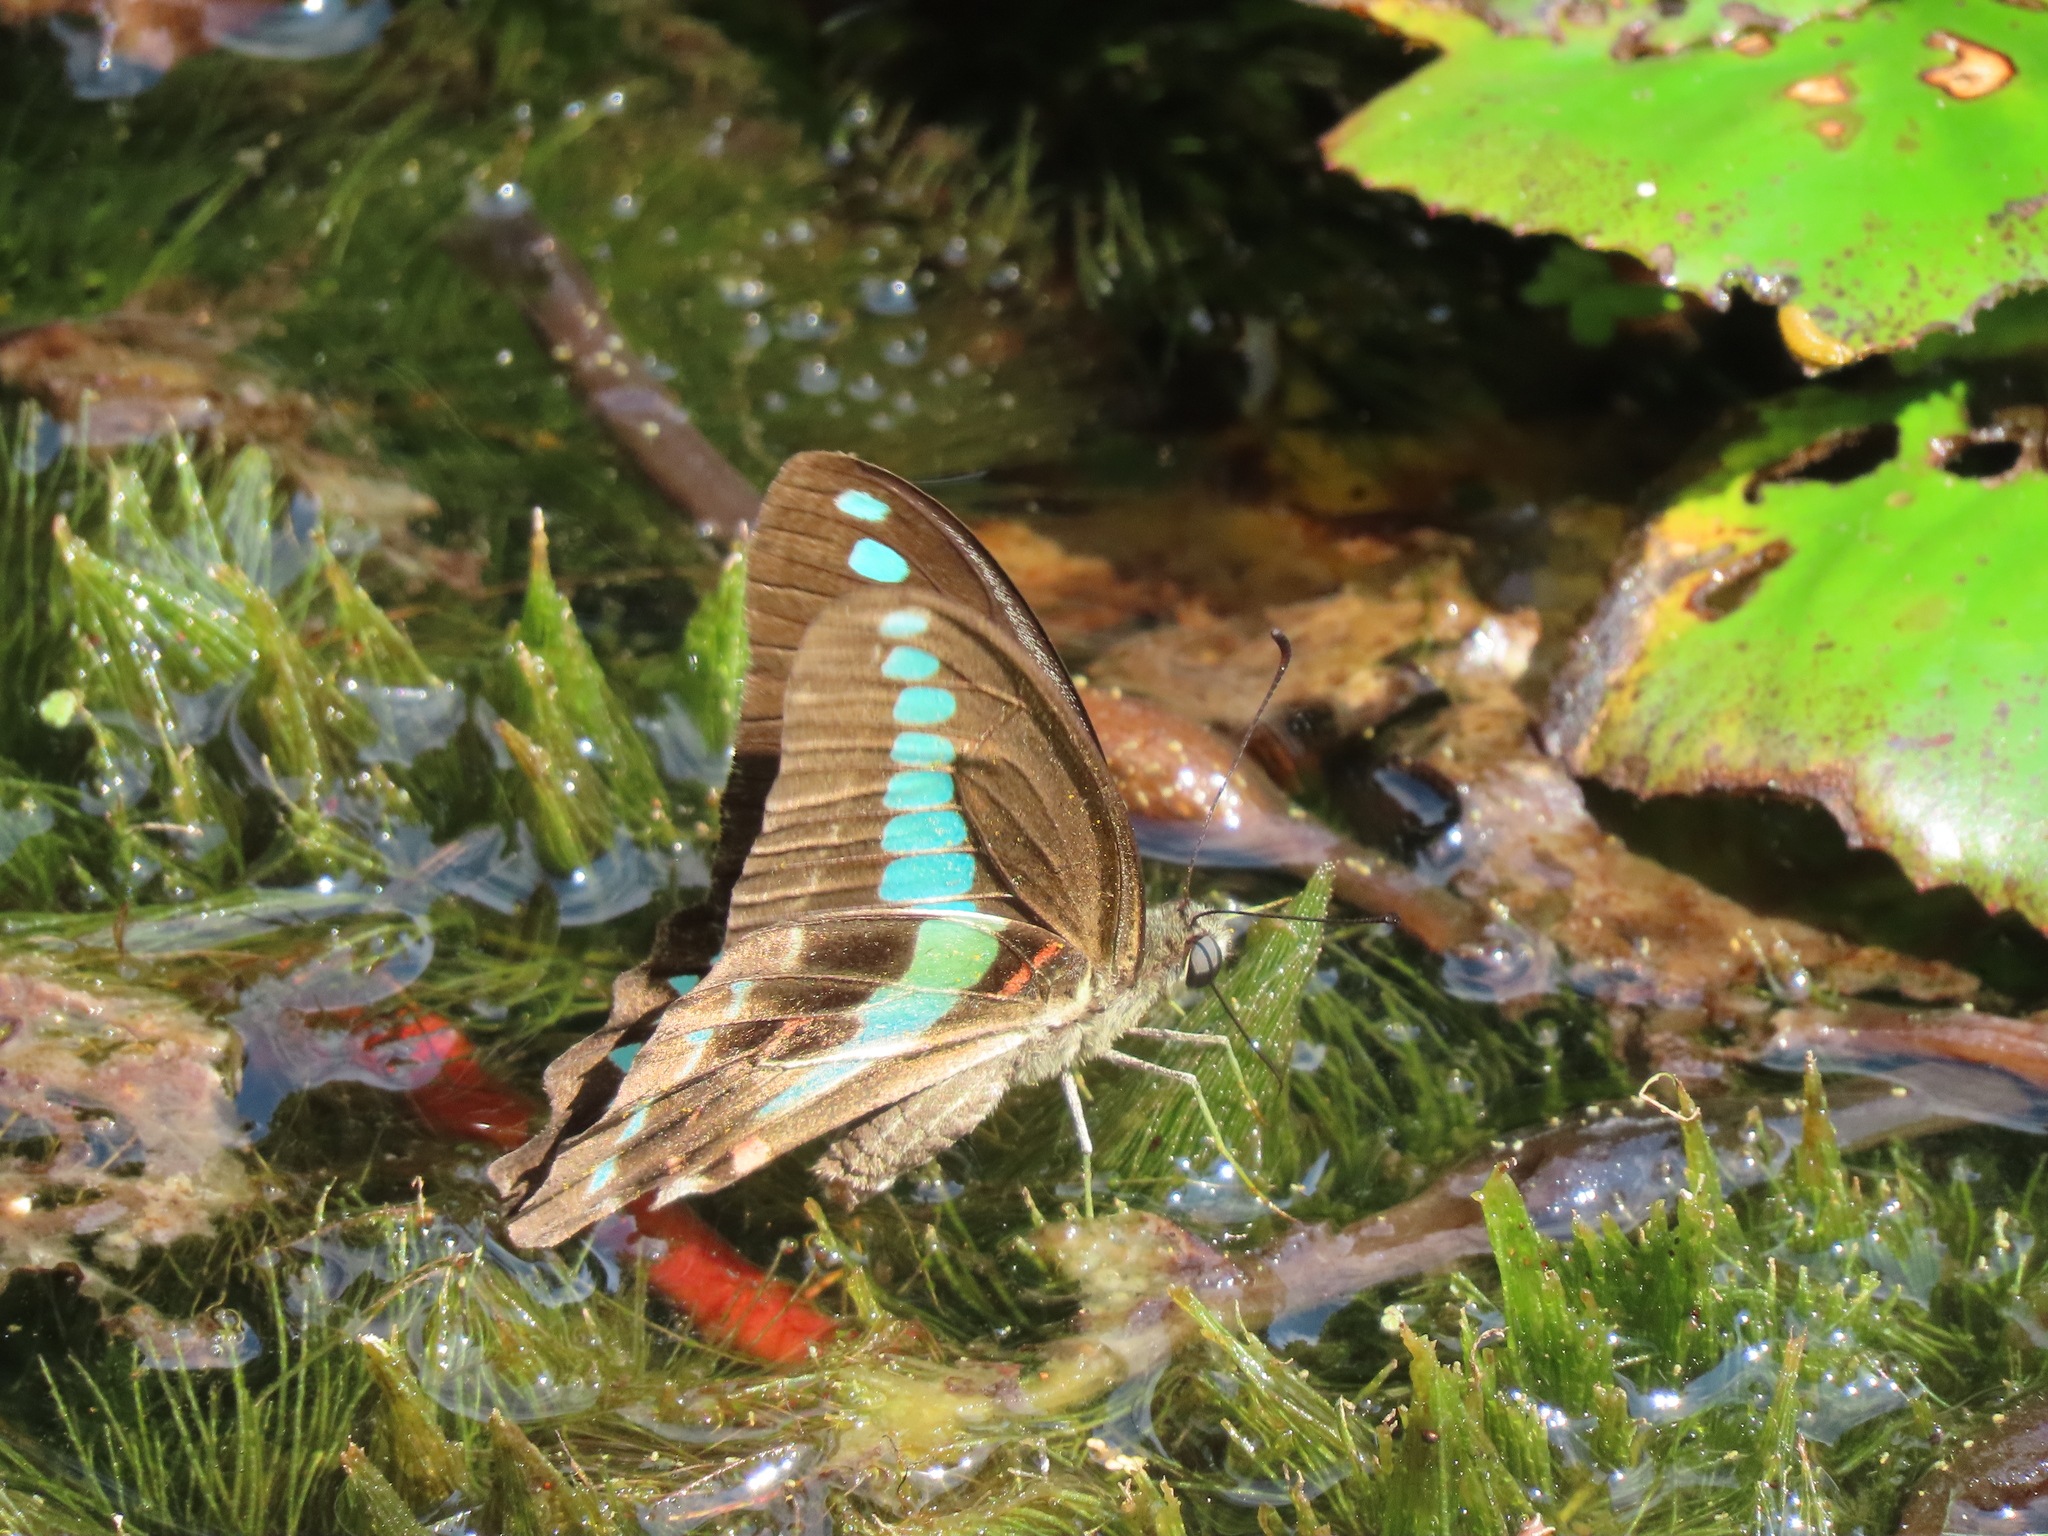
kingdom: Fungi
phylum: Ascomycota
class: Sordariomycetes
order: Microascales
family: Microascaceae
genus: Graphium
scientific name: Graphium sarpedon
